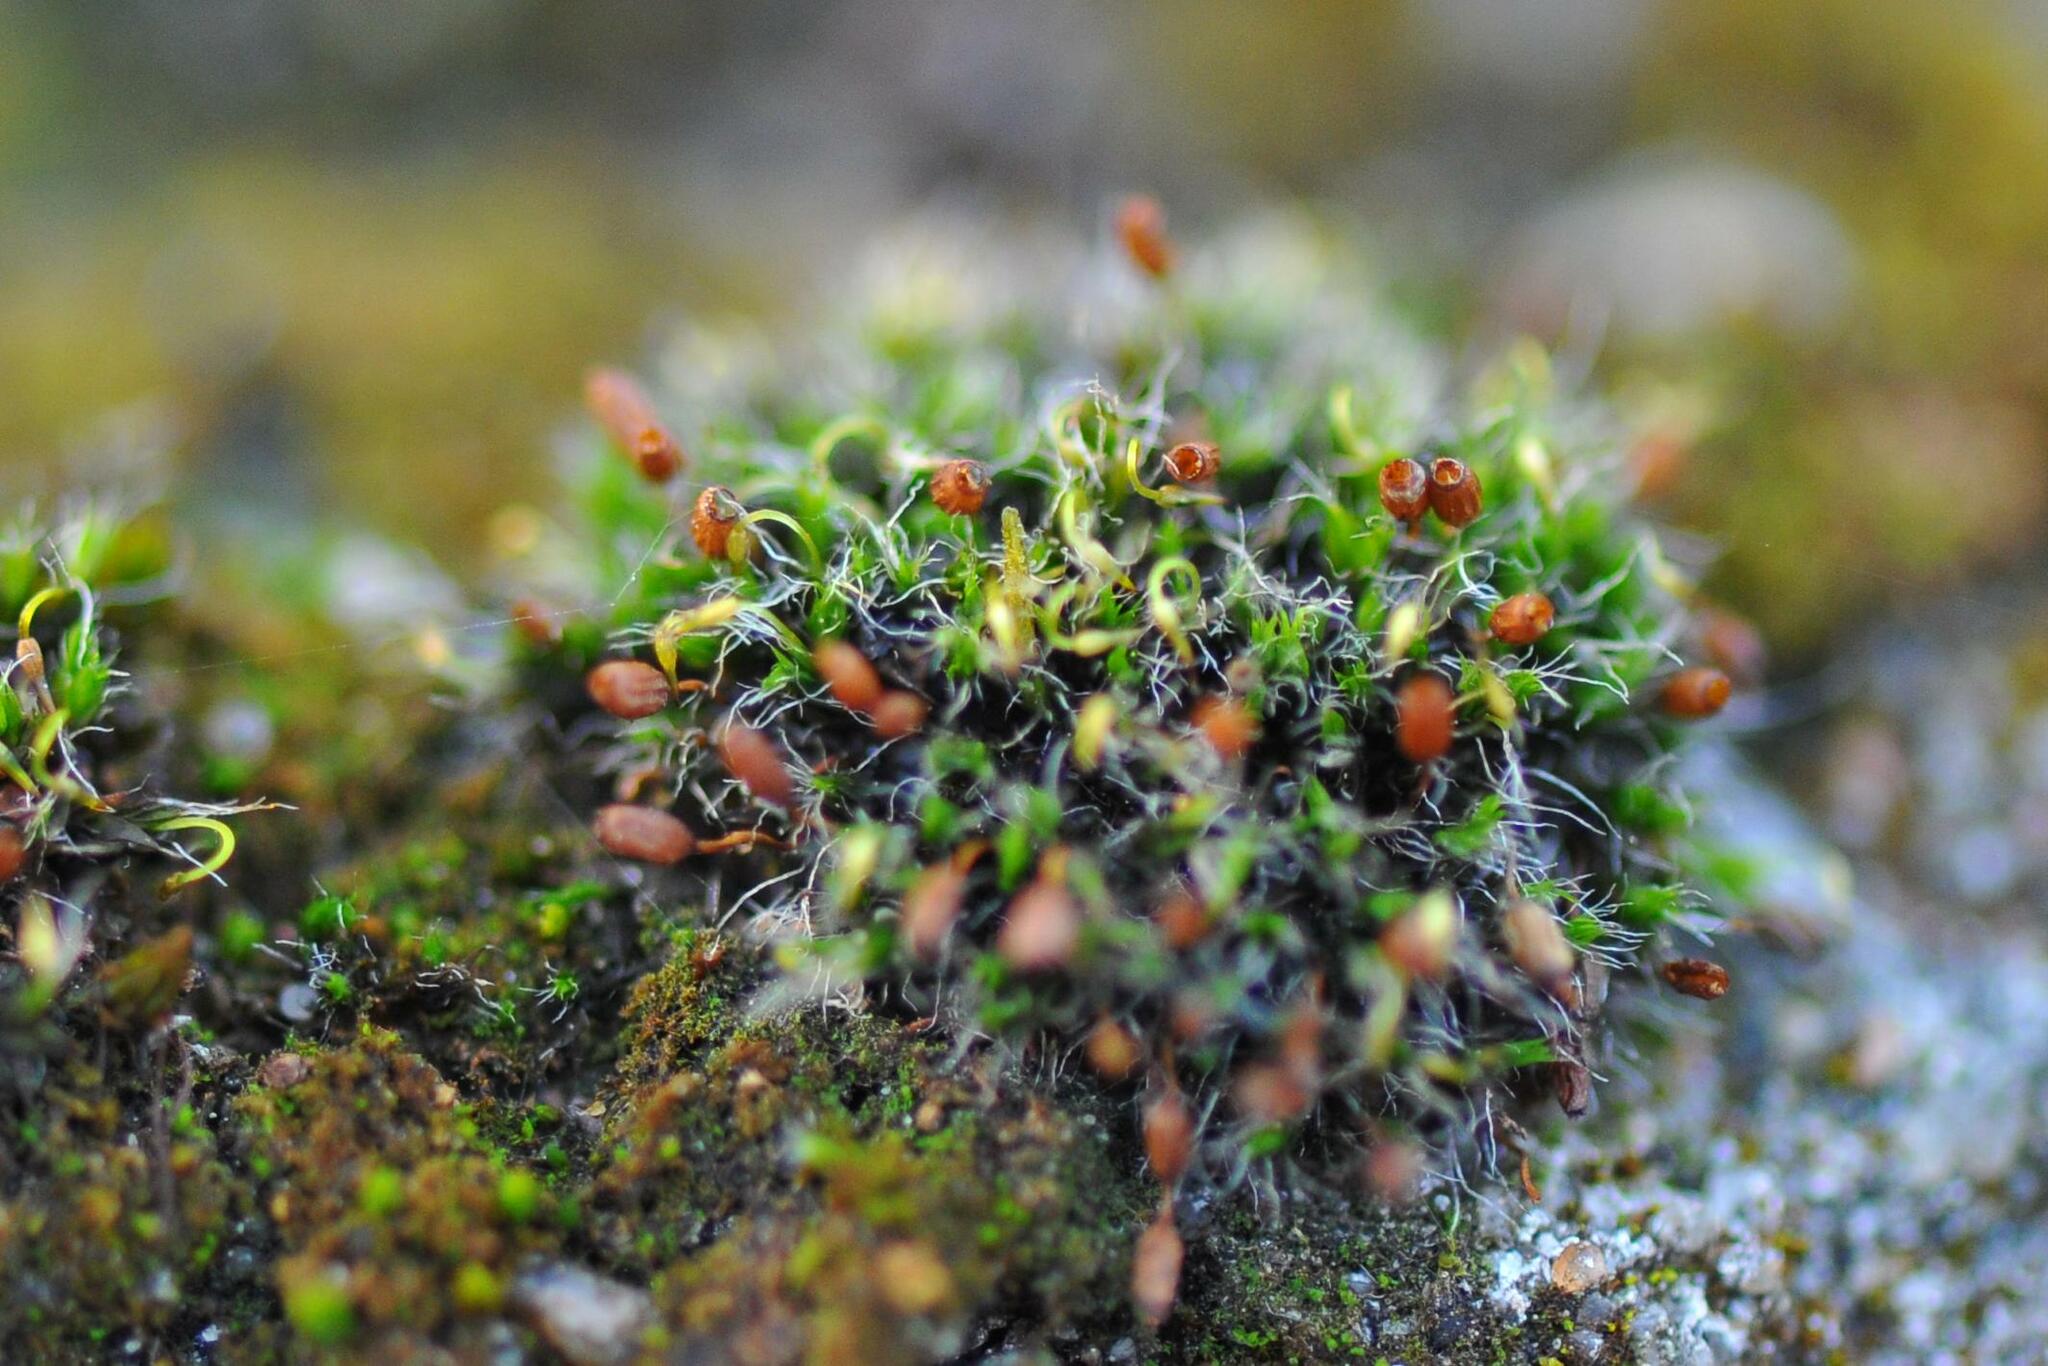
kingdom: Plantae
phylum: Bryophyta
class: Bryopsida
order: Grimmiales
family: Grimmiaceae
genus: Grimmia
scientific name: Grimmia pulvinata
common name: Grey-cushioned grimmia
